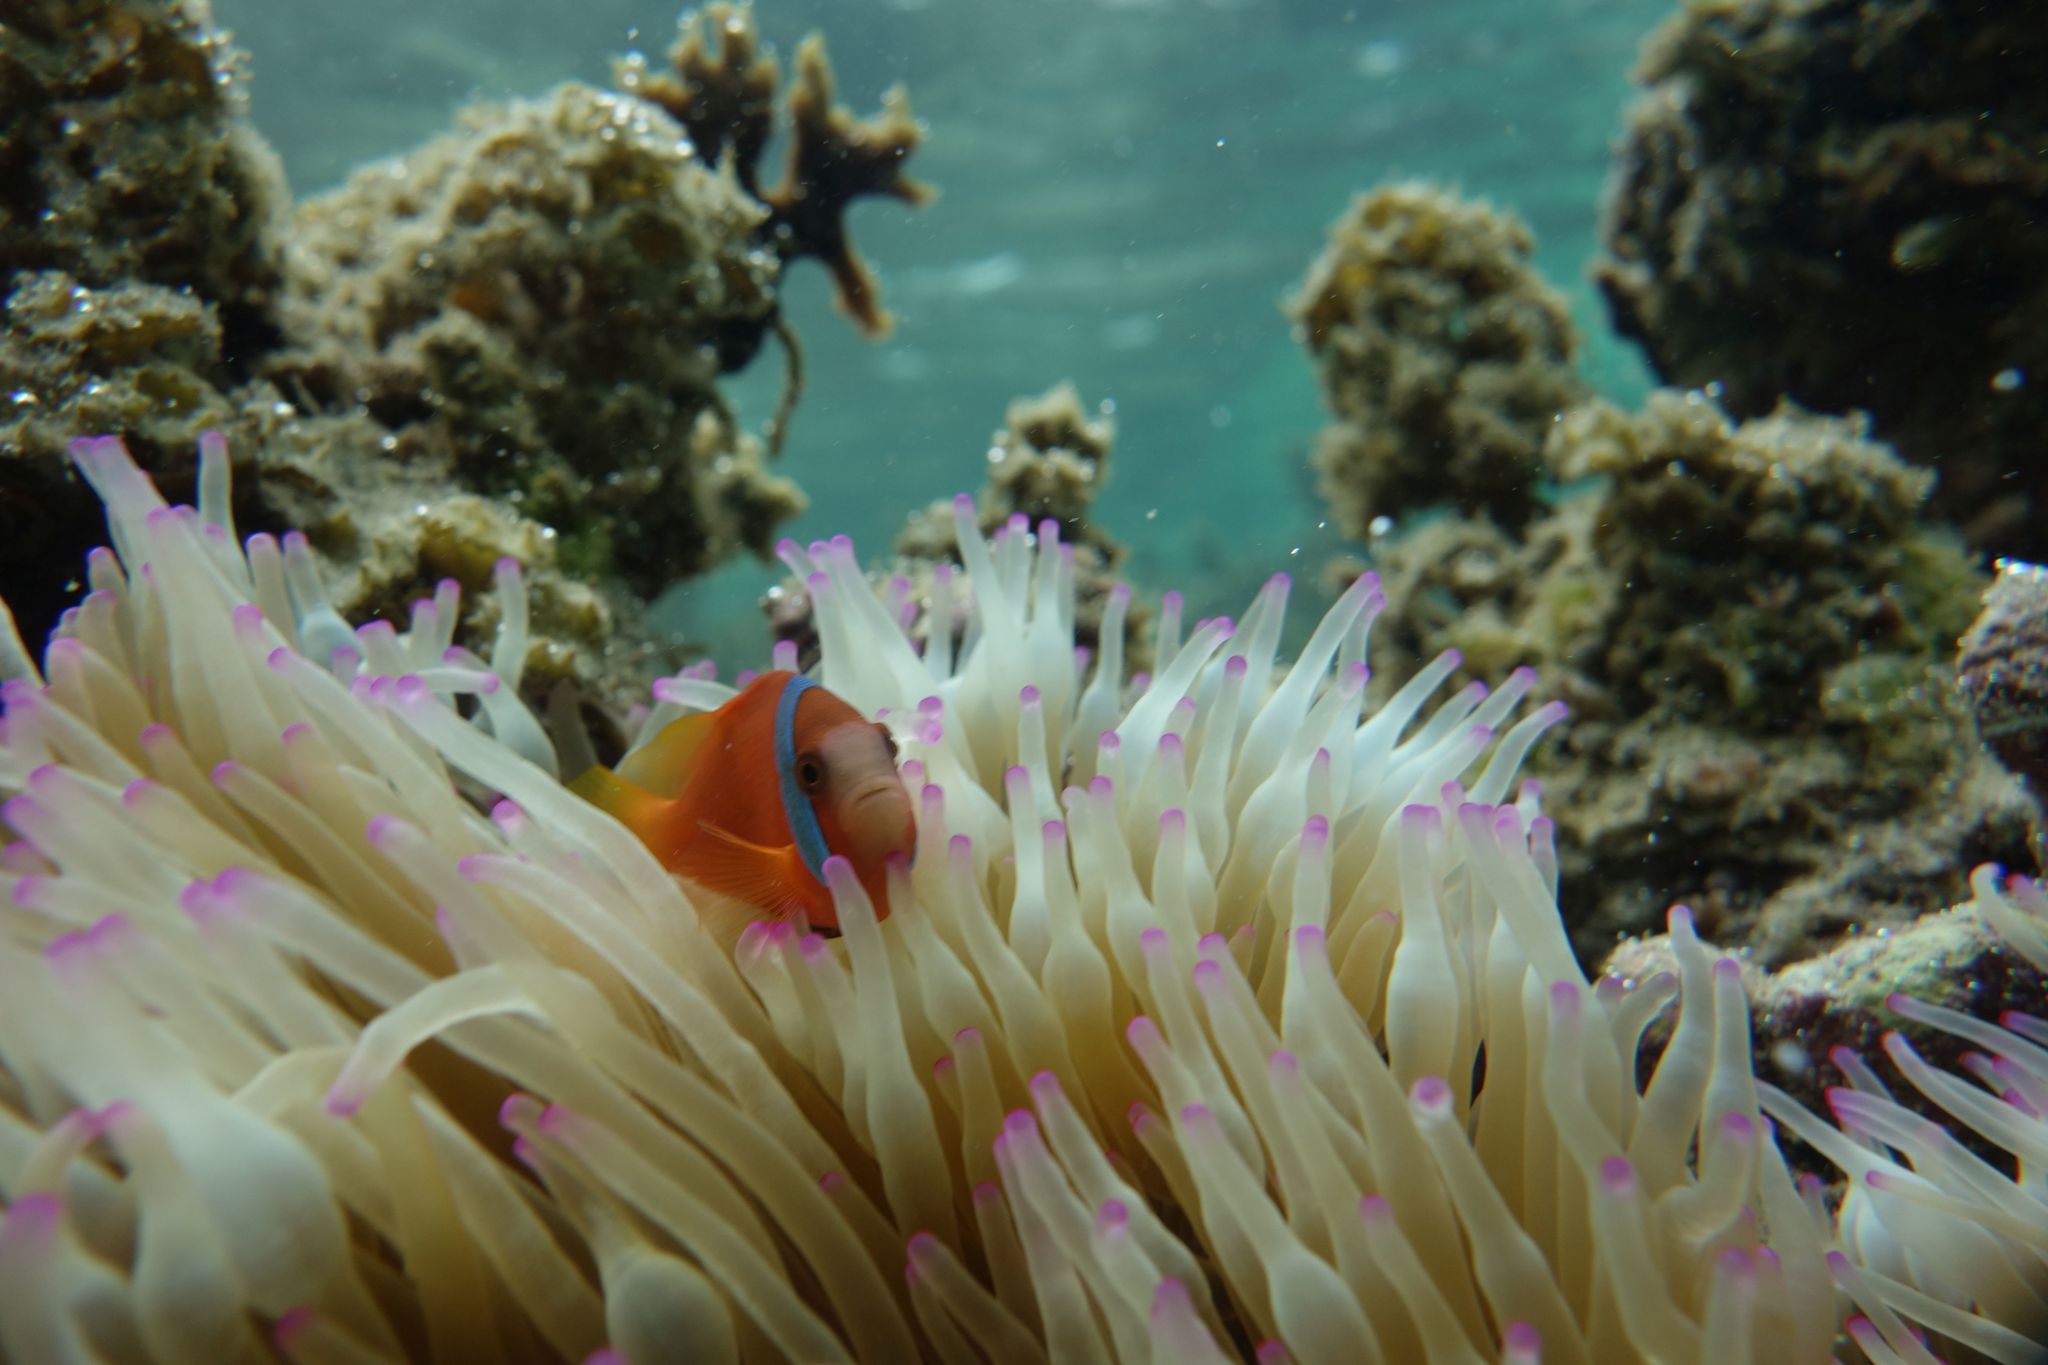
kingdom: Animalia
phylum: Cnidaria
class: Anthozoa
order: Actiniaria
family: Actiniidae
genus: Entacmaea
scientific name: Entacmaea quadricolor
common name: Bulb tentacle sea anemone
